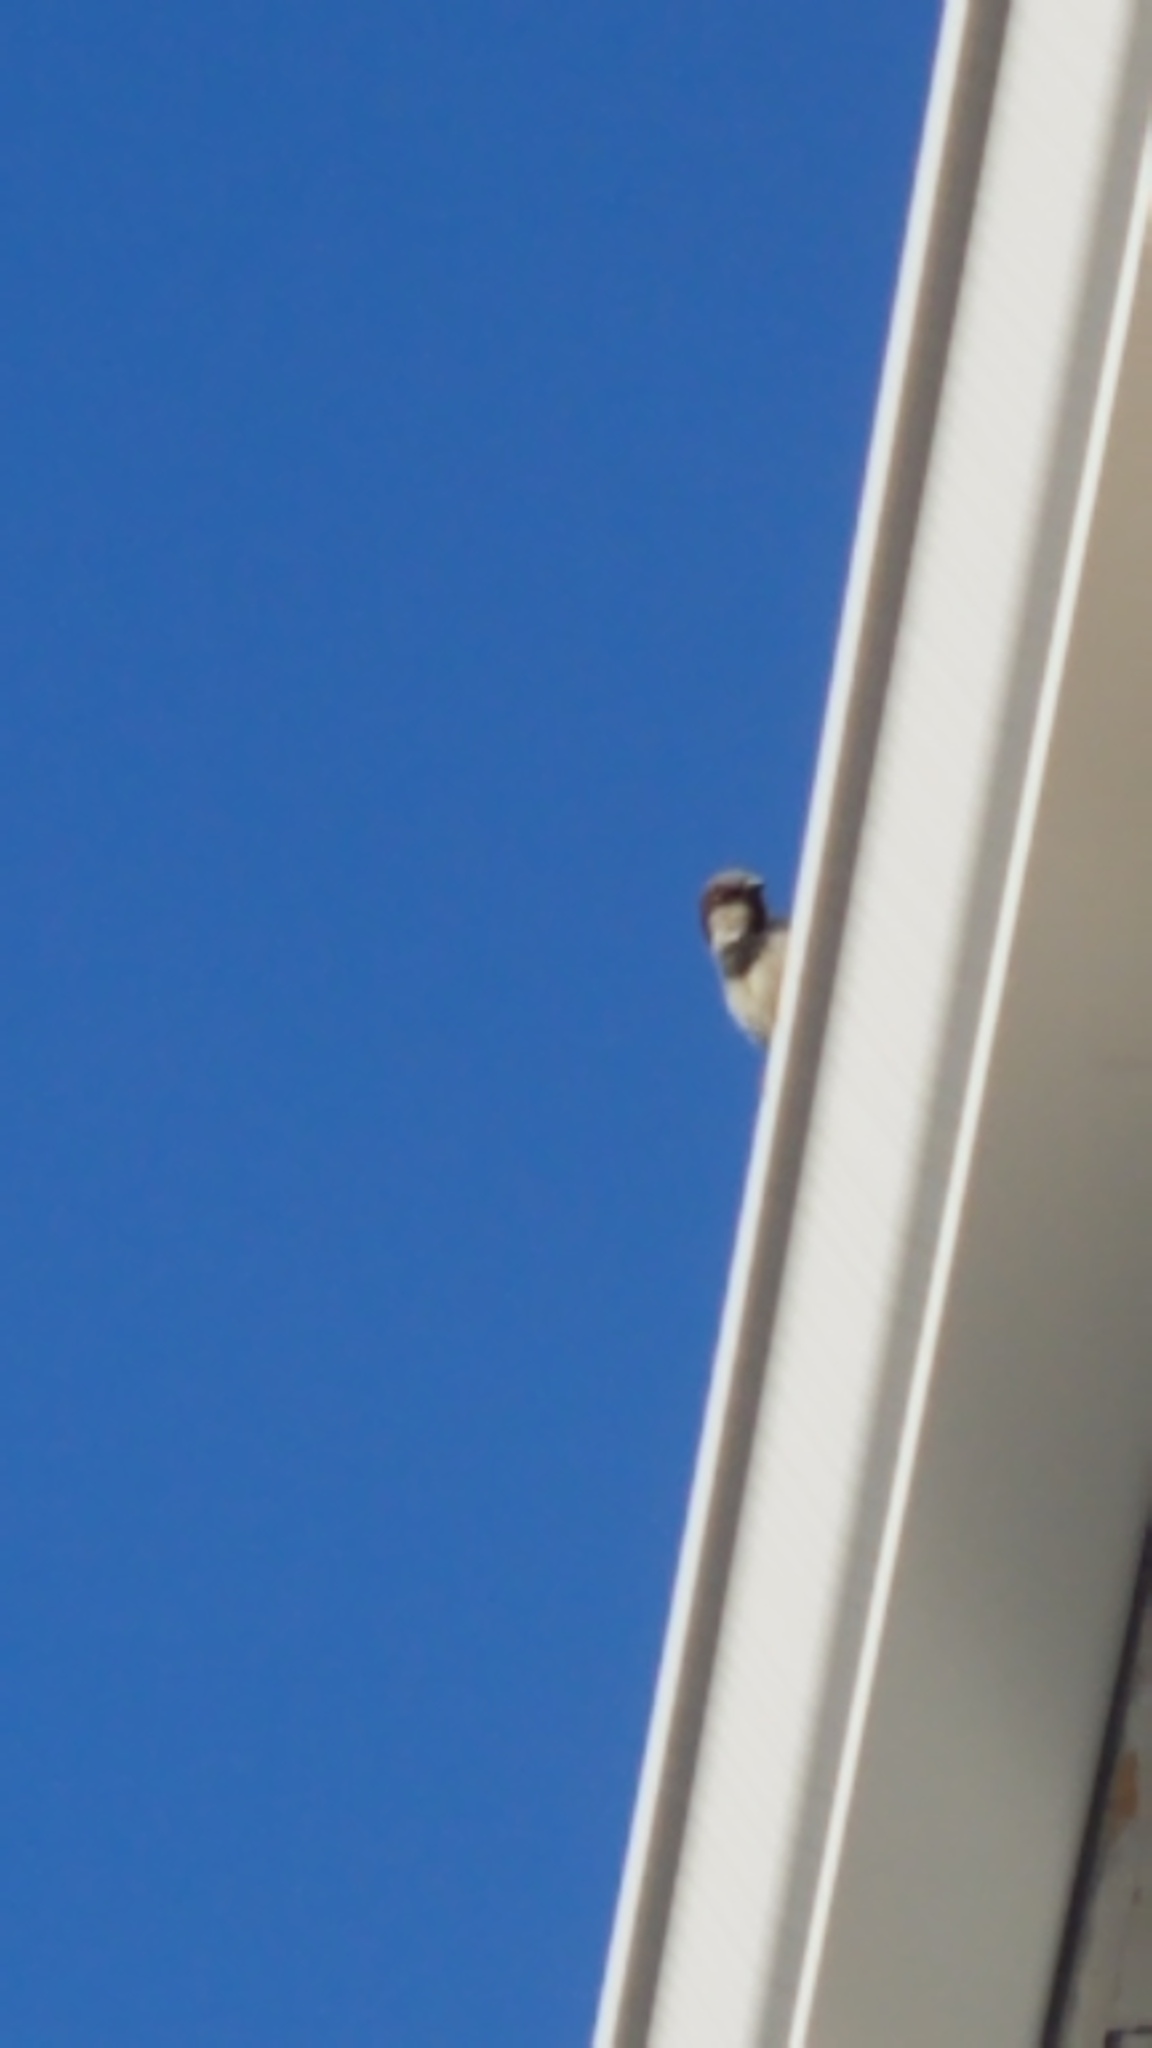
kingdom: Animalia
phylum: Chordata
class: Aves
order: Passeriformes
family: Passeridae
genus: Passer
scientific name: Passer domesticus
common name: House sparrow
